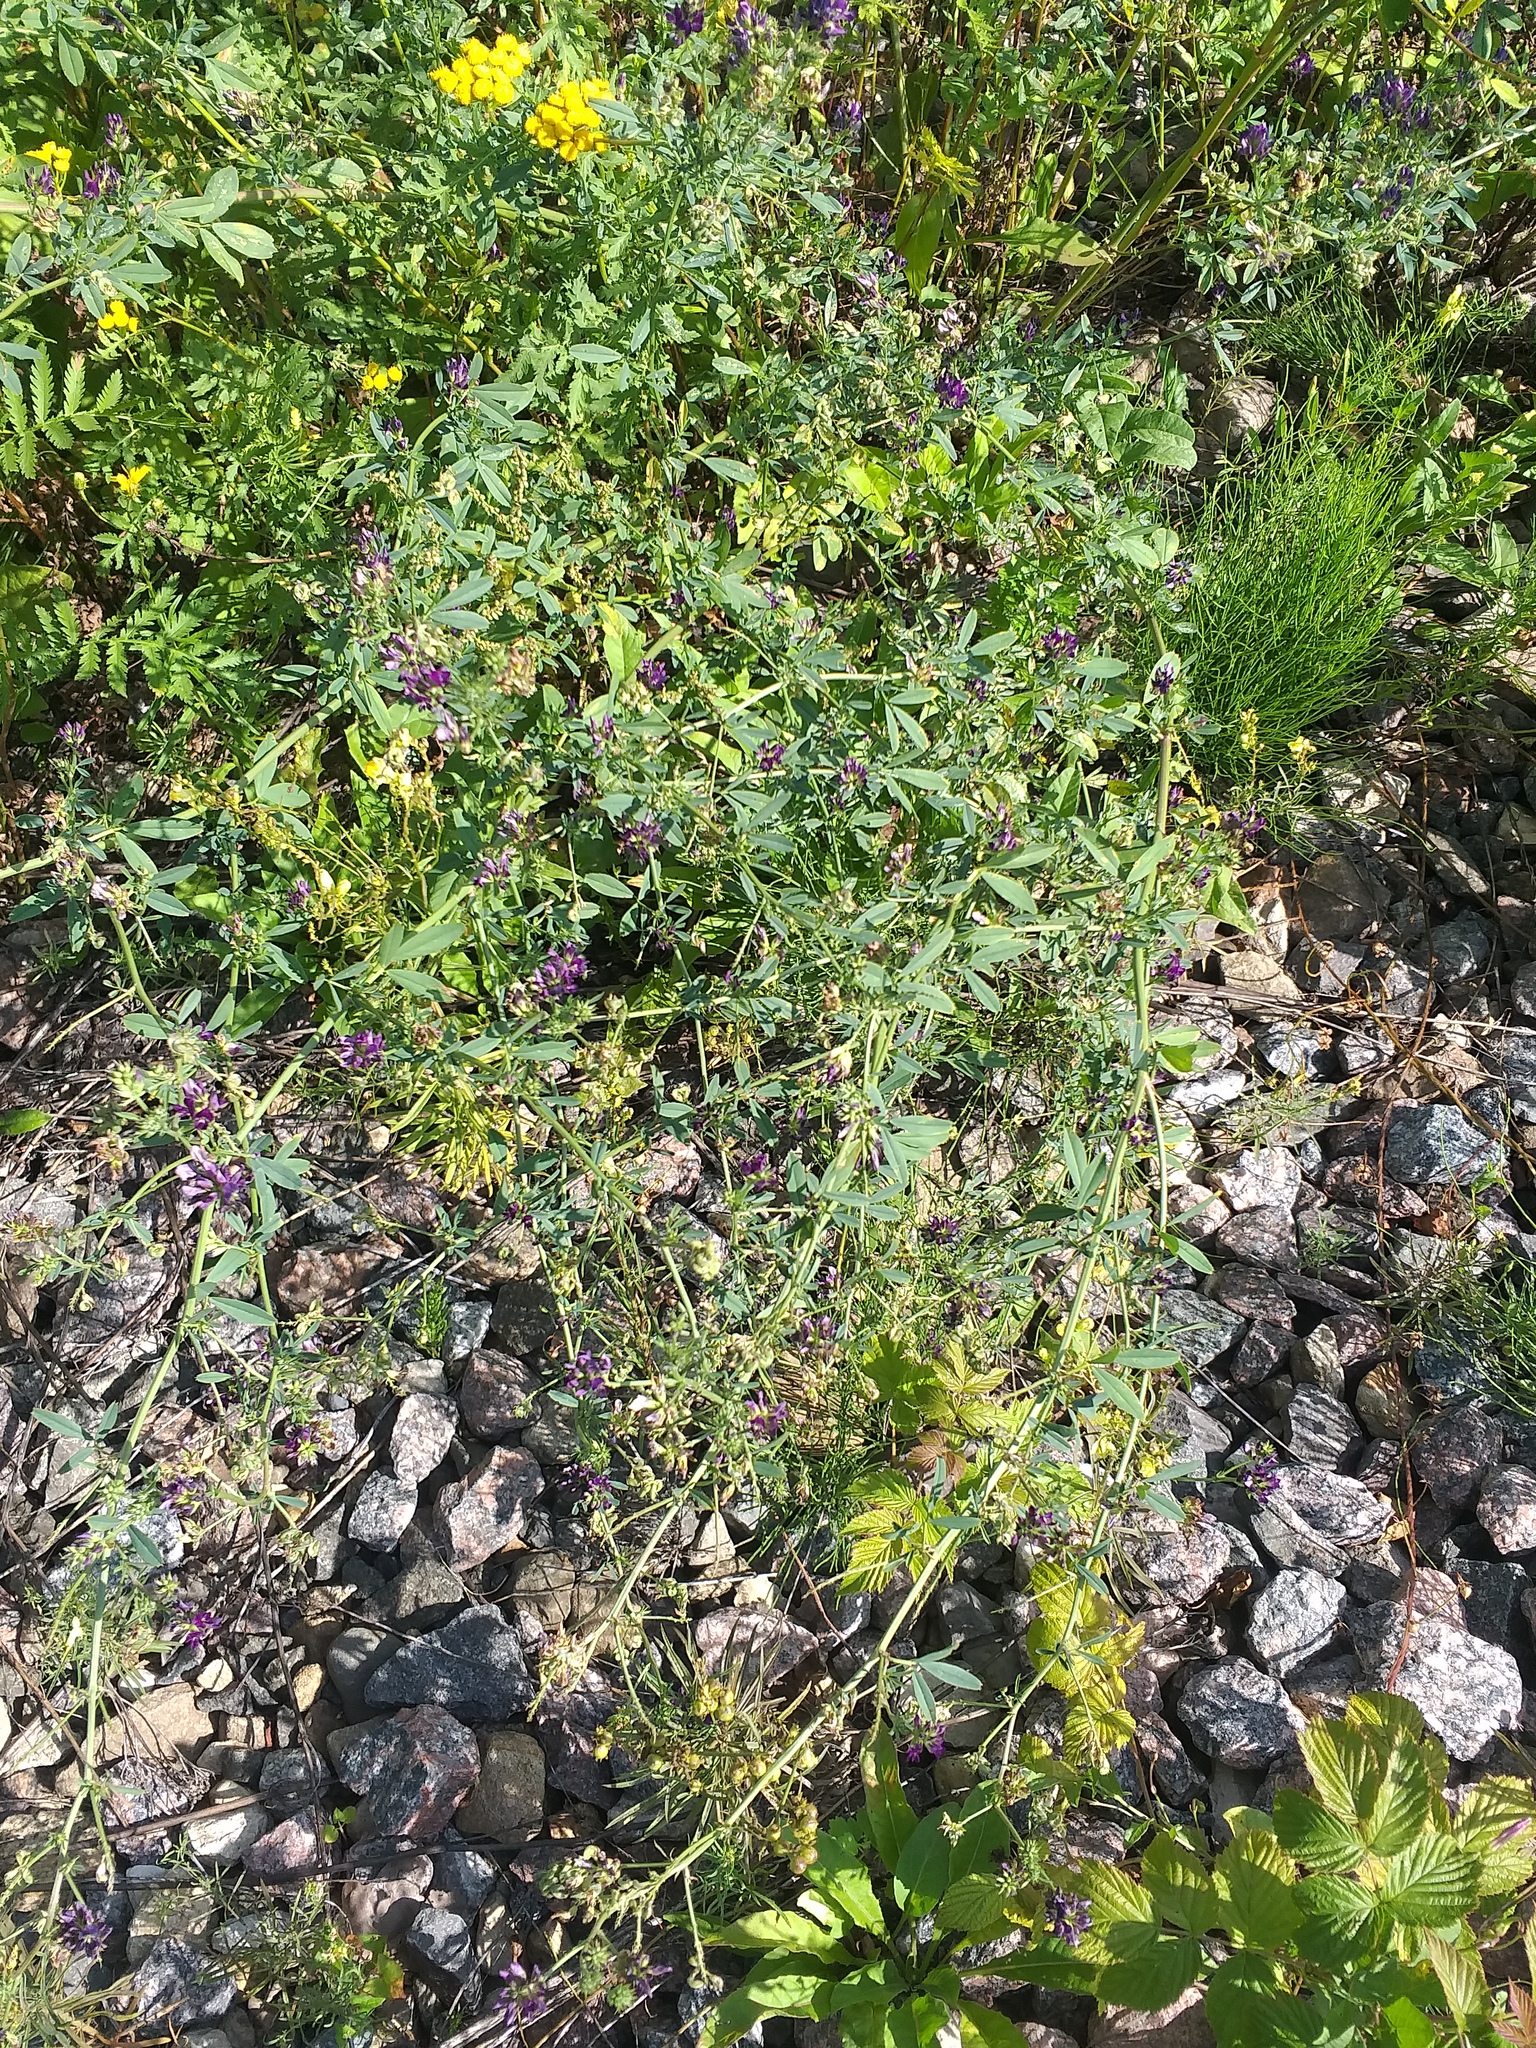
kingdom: Plantae
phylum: Tracheophyta
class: Magnoliopsida
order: Fabales
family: Fabaceae
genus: Medicago
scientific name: Medicago varia
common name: Sand lucerne
